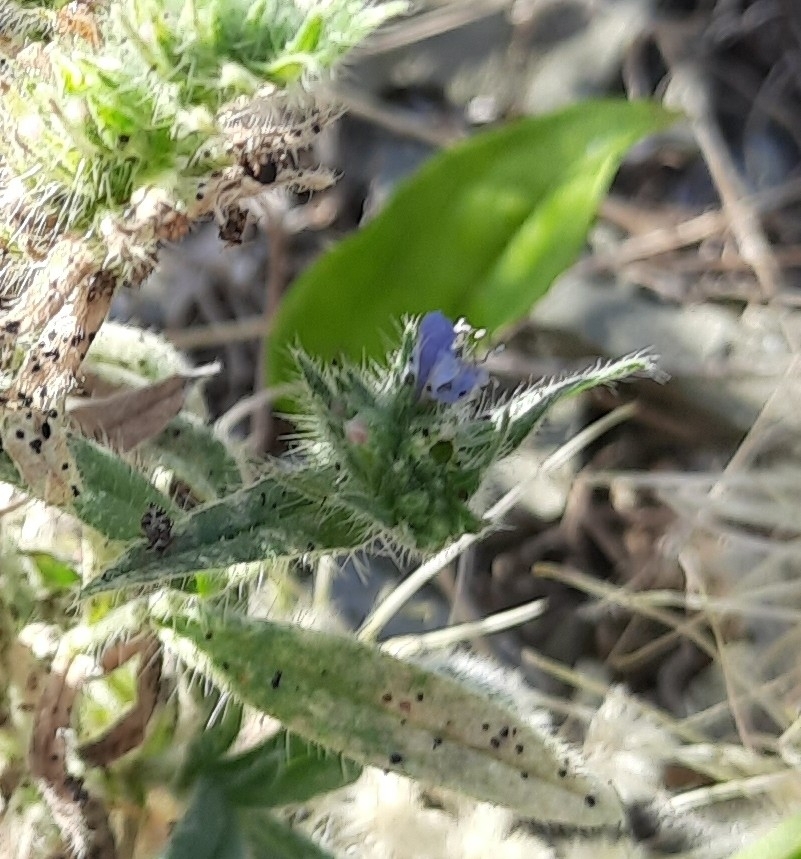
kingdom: Plantae
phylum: Tracheophyta
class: Magnoliopsida
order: Boraginales
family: Boraginaceae
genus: Echium
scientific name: Echium vulgare
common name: Common viper's bugloss
